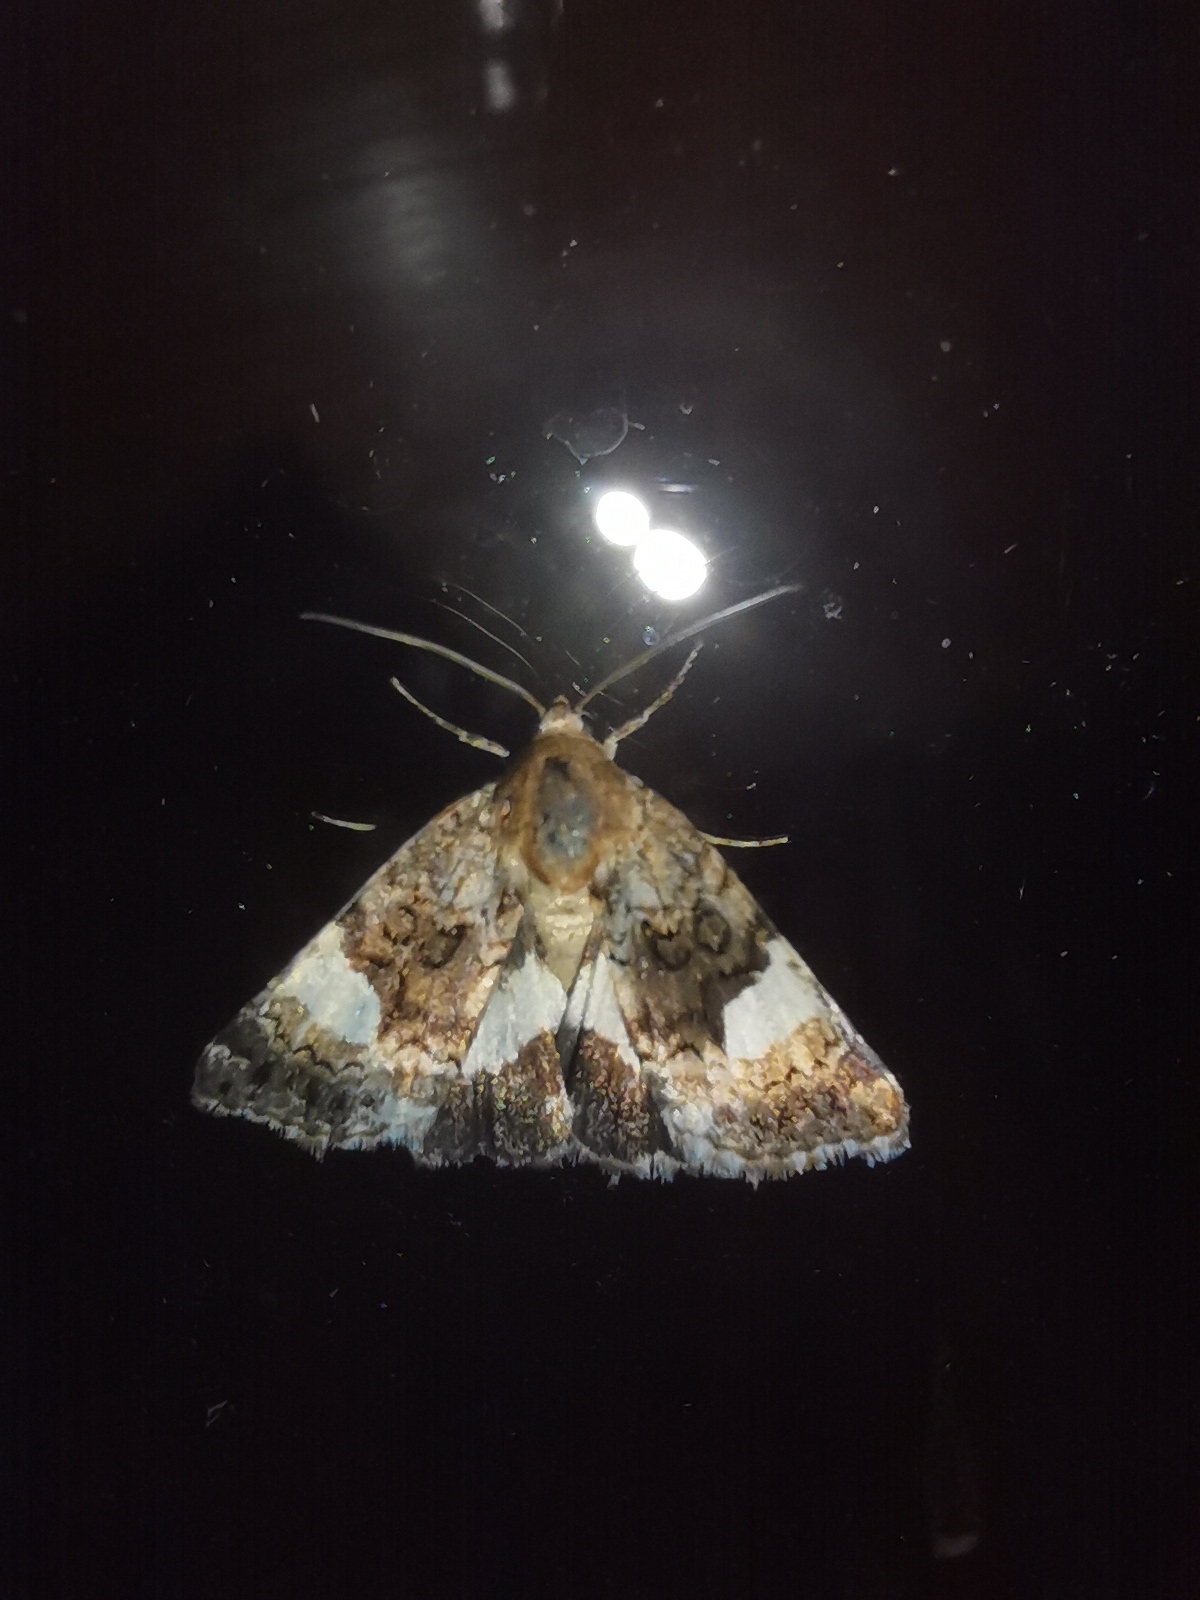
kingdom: Animalia
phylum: Arthropoda
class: Insecta
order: Lepidoptera
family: Erebidae
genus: Tyta
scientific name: Tyta luctuosa
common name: Four-spotted
